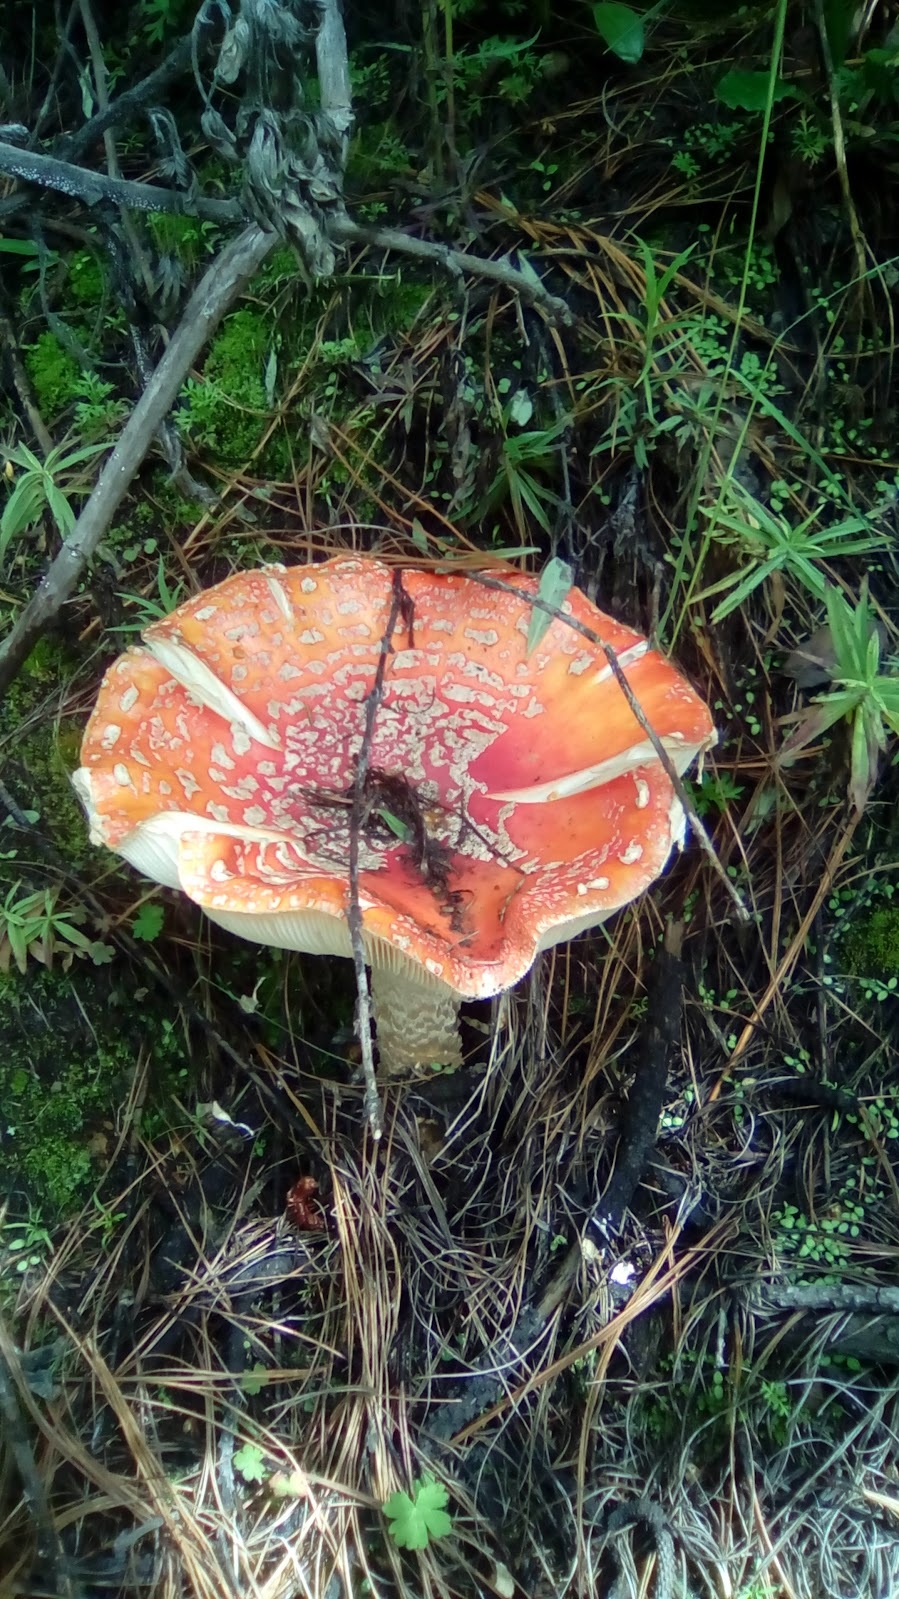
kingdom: Fungi
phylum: Basidiomycota
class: Agaricomycetes
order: Agaricales
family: Amanitaceae
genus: Amanita
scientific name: Amanita muscaria
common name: Fly agaric
